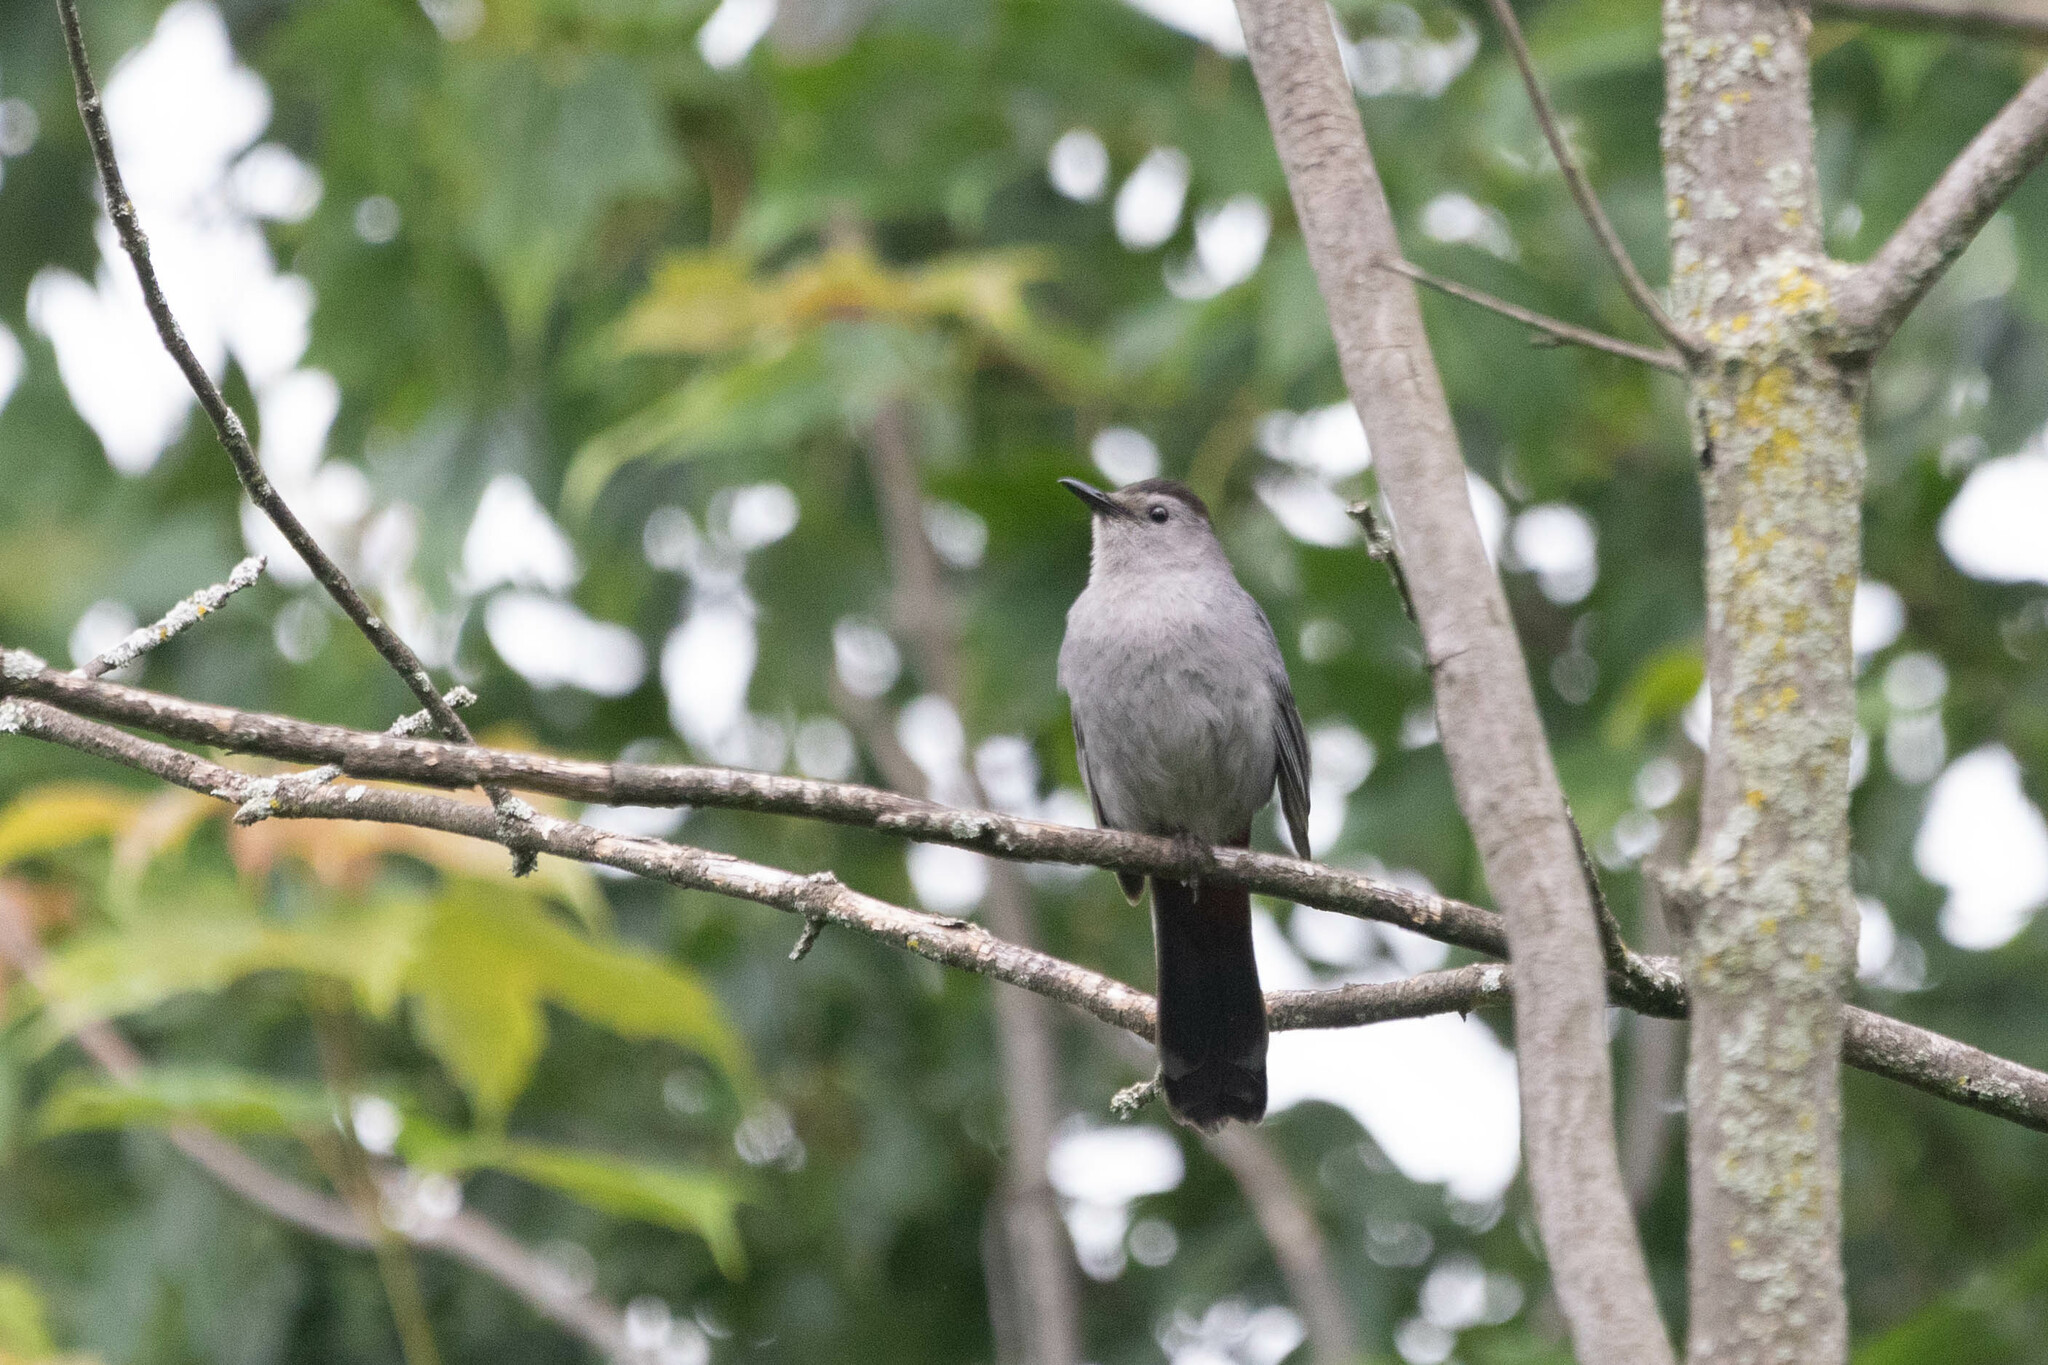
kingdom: Animalia
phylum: Chordata
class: Aves
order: Passeriformes
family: Mimidae
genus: Dumetella
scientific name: Dumetella carolinensis
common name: Gray catbird
